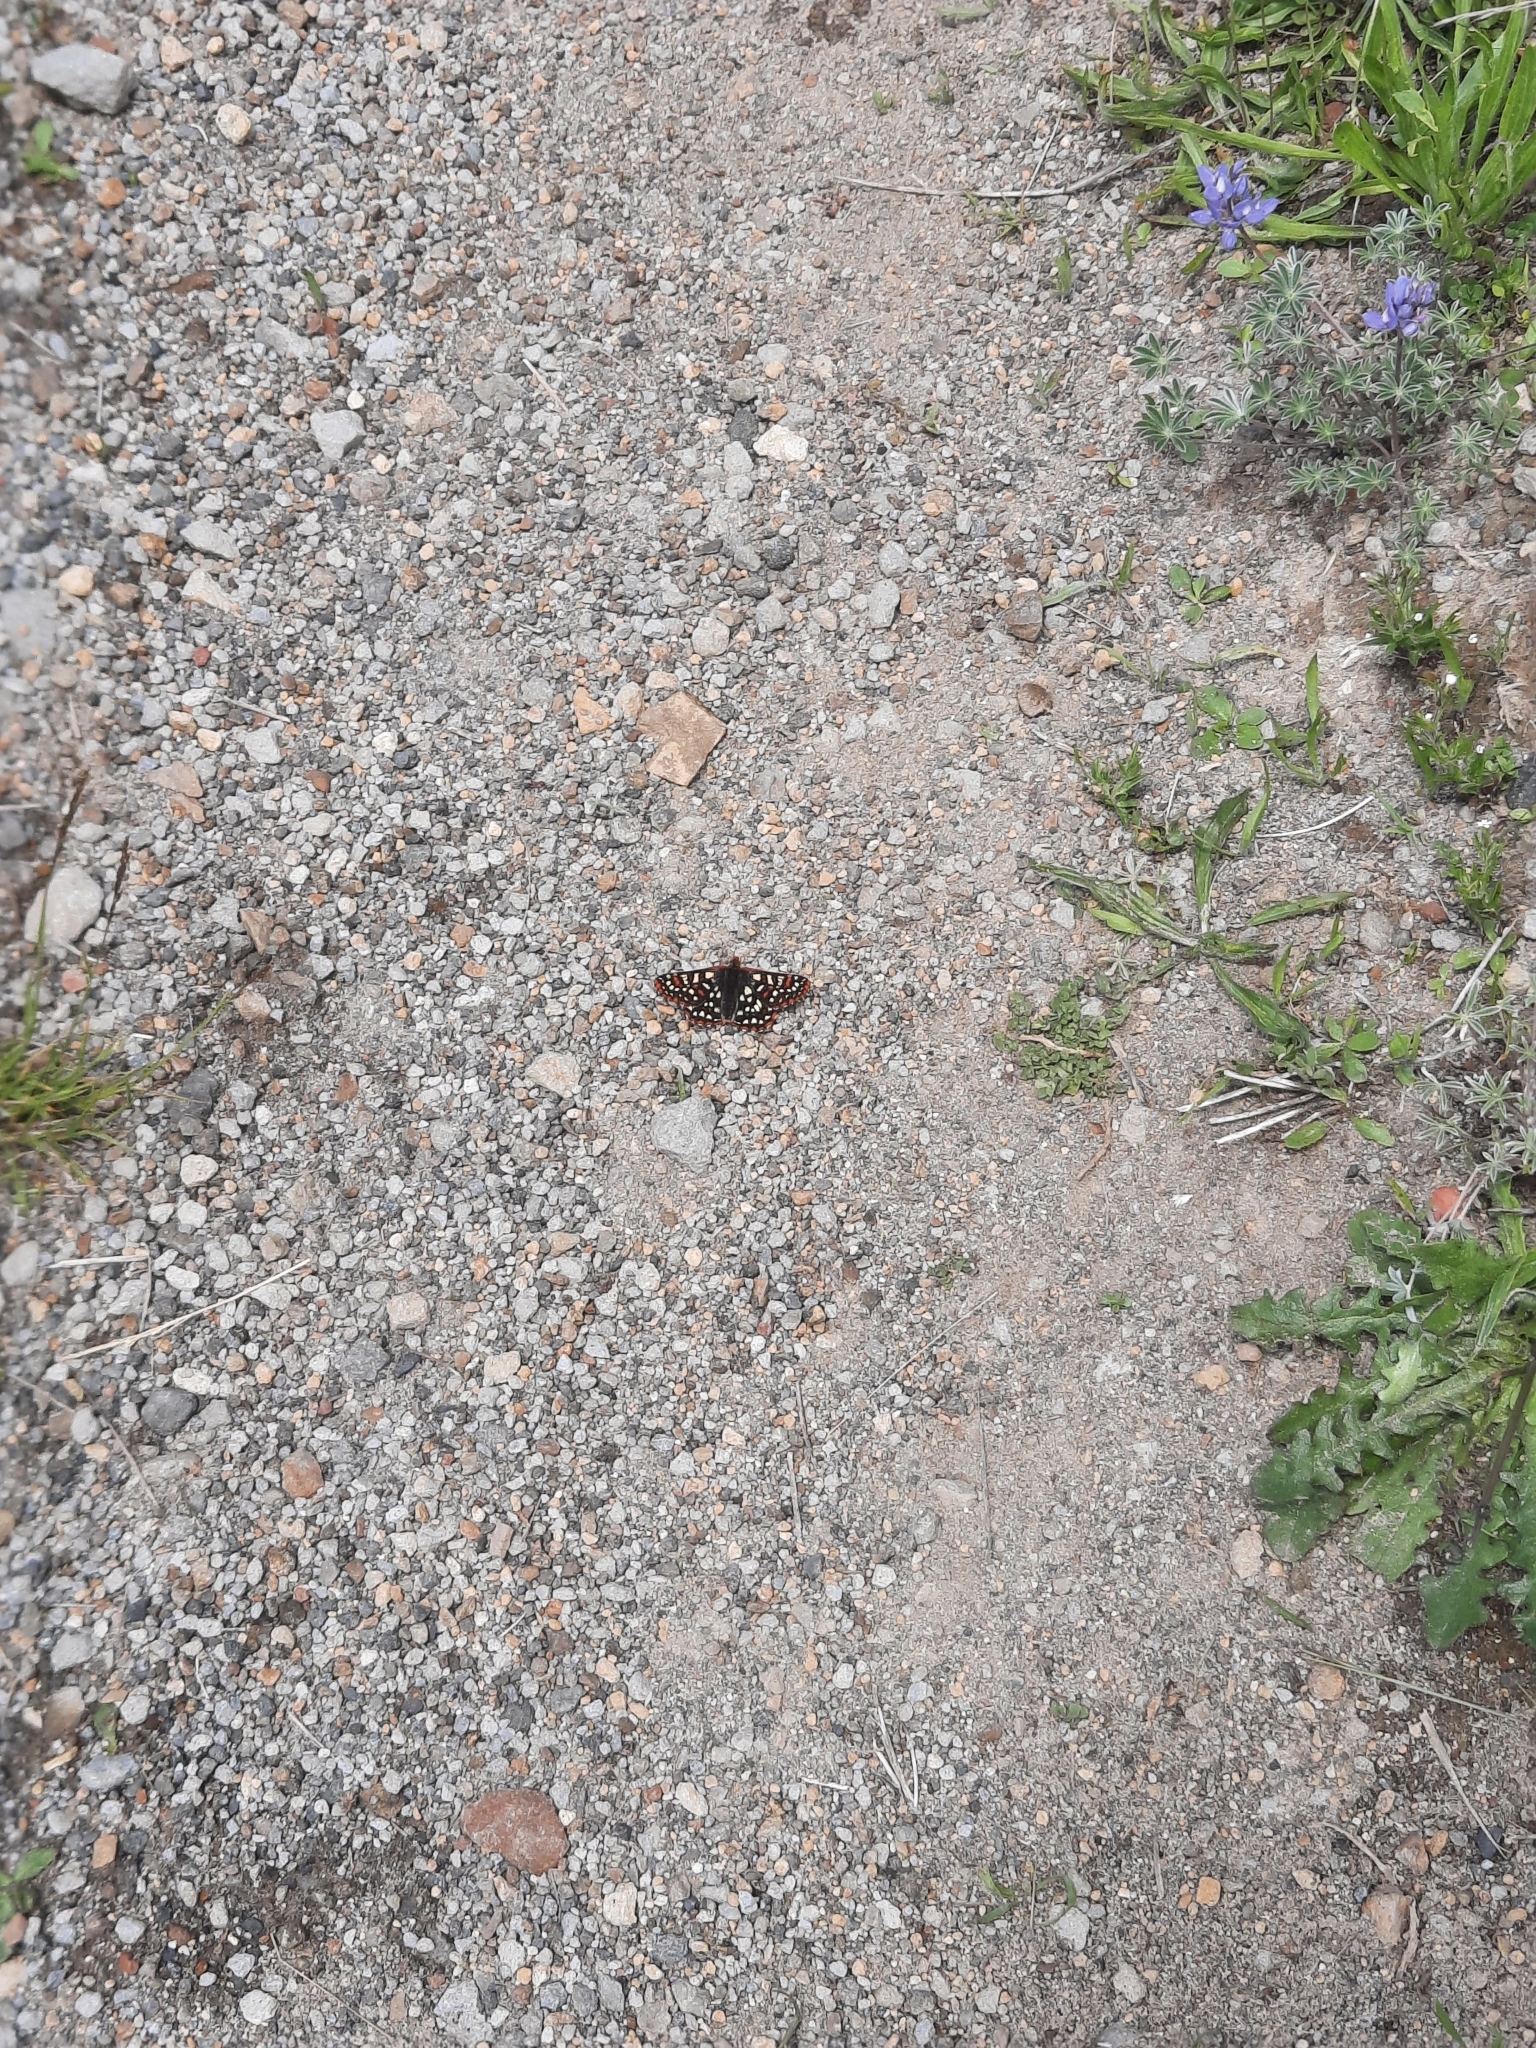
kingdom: Animalia
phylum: Arthropoda
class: Insecta
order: Lepidoptera
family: Nymphalidae
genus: Occidryas
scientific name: Occidryas colon
